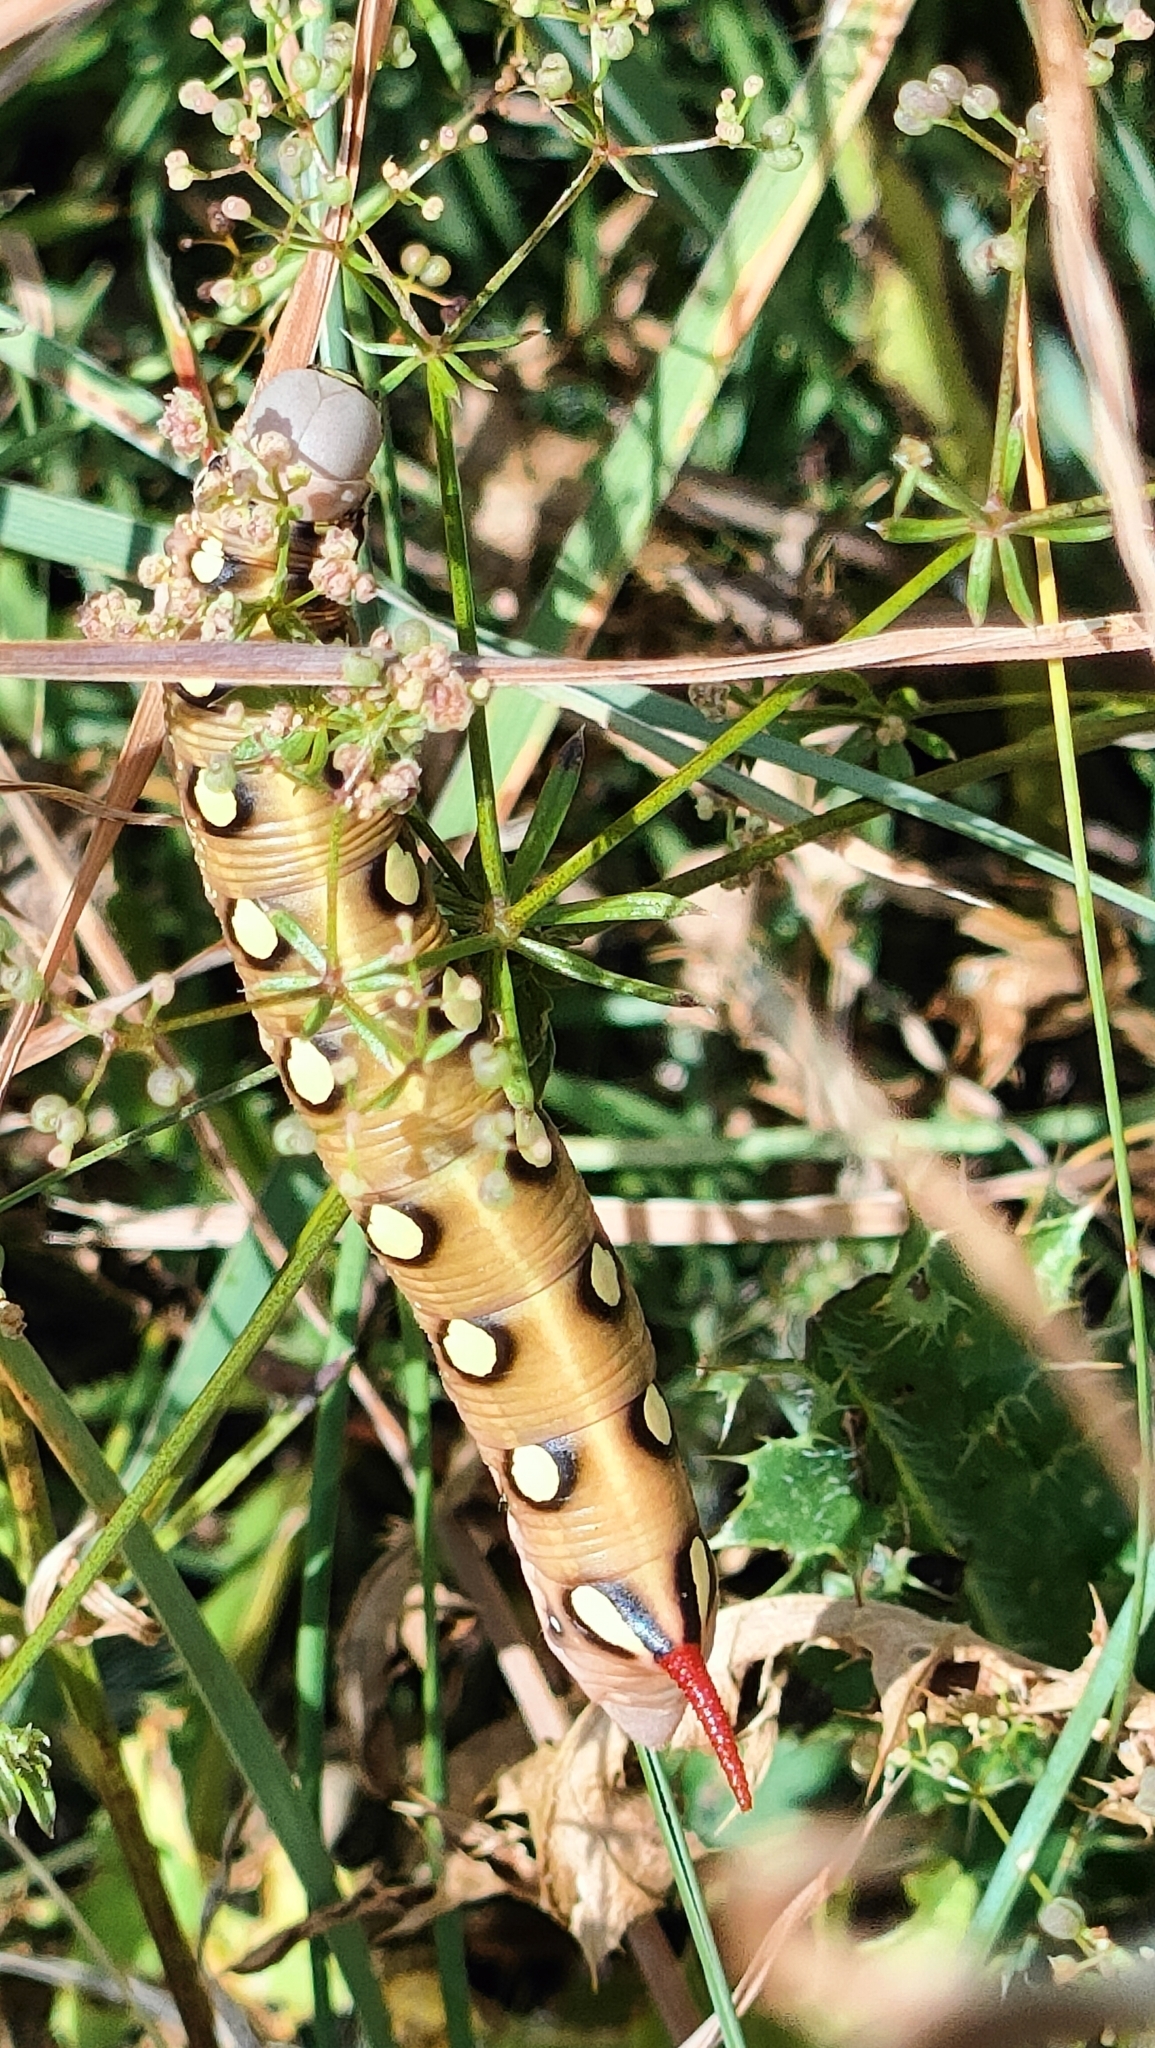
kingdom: Animalia
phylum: Arthropoda
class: Insecta
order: Lepidoptera
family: Sphingidae
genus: Hyles
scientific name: Hyles gallii
